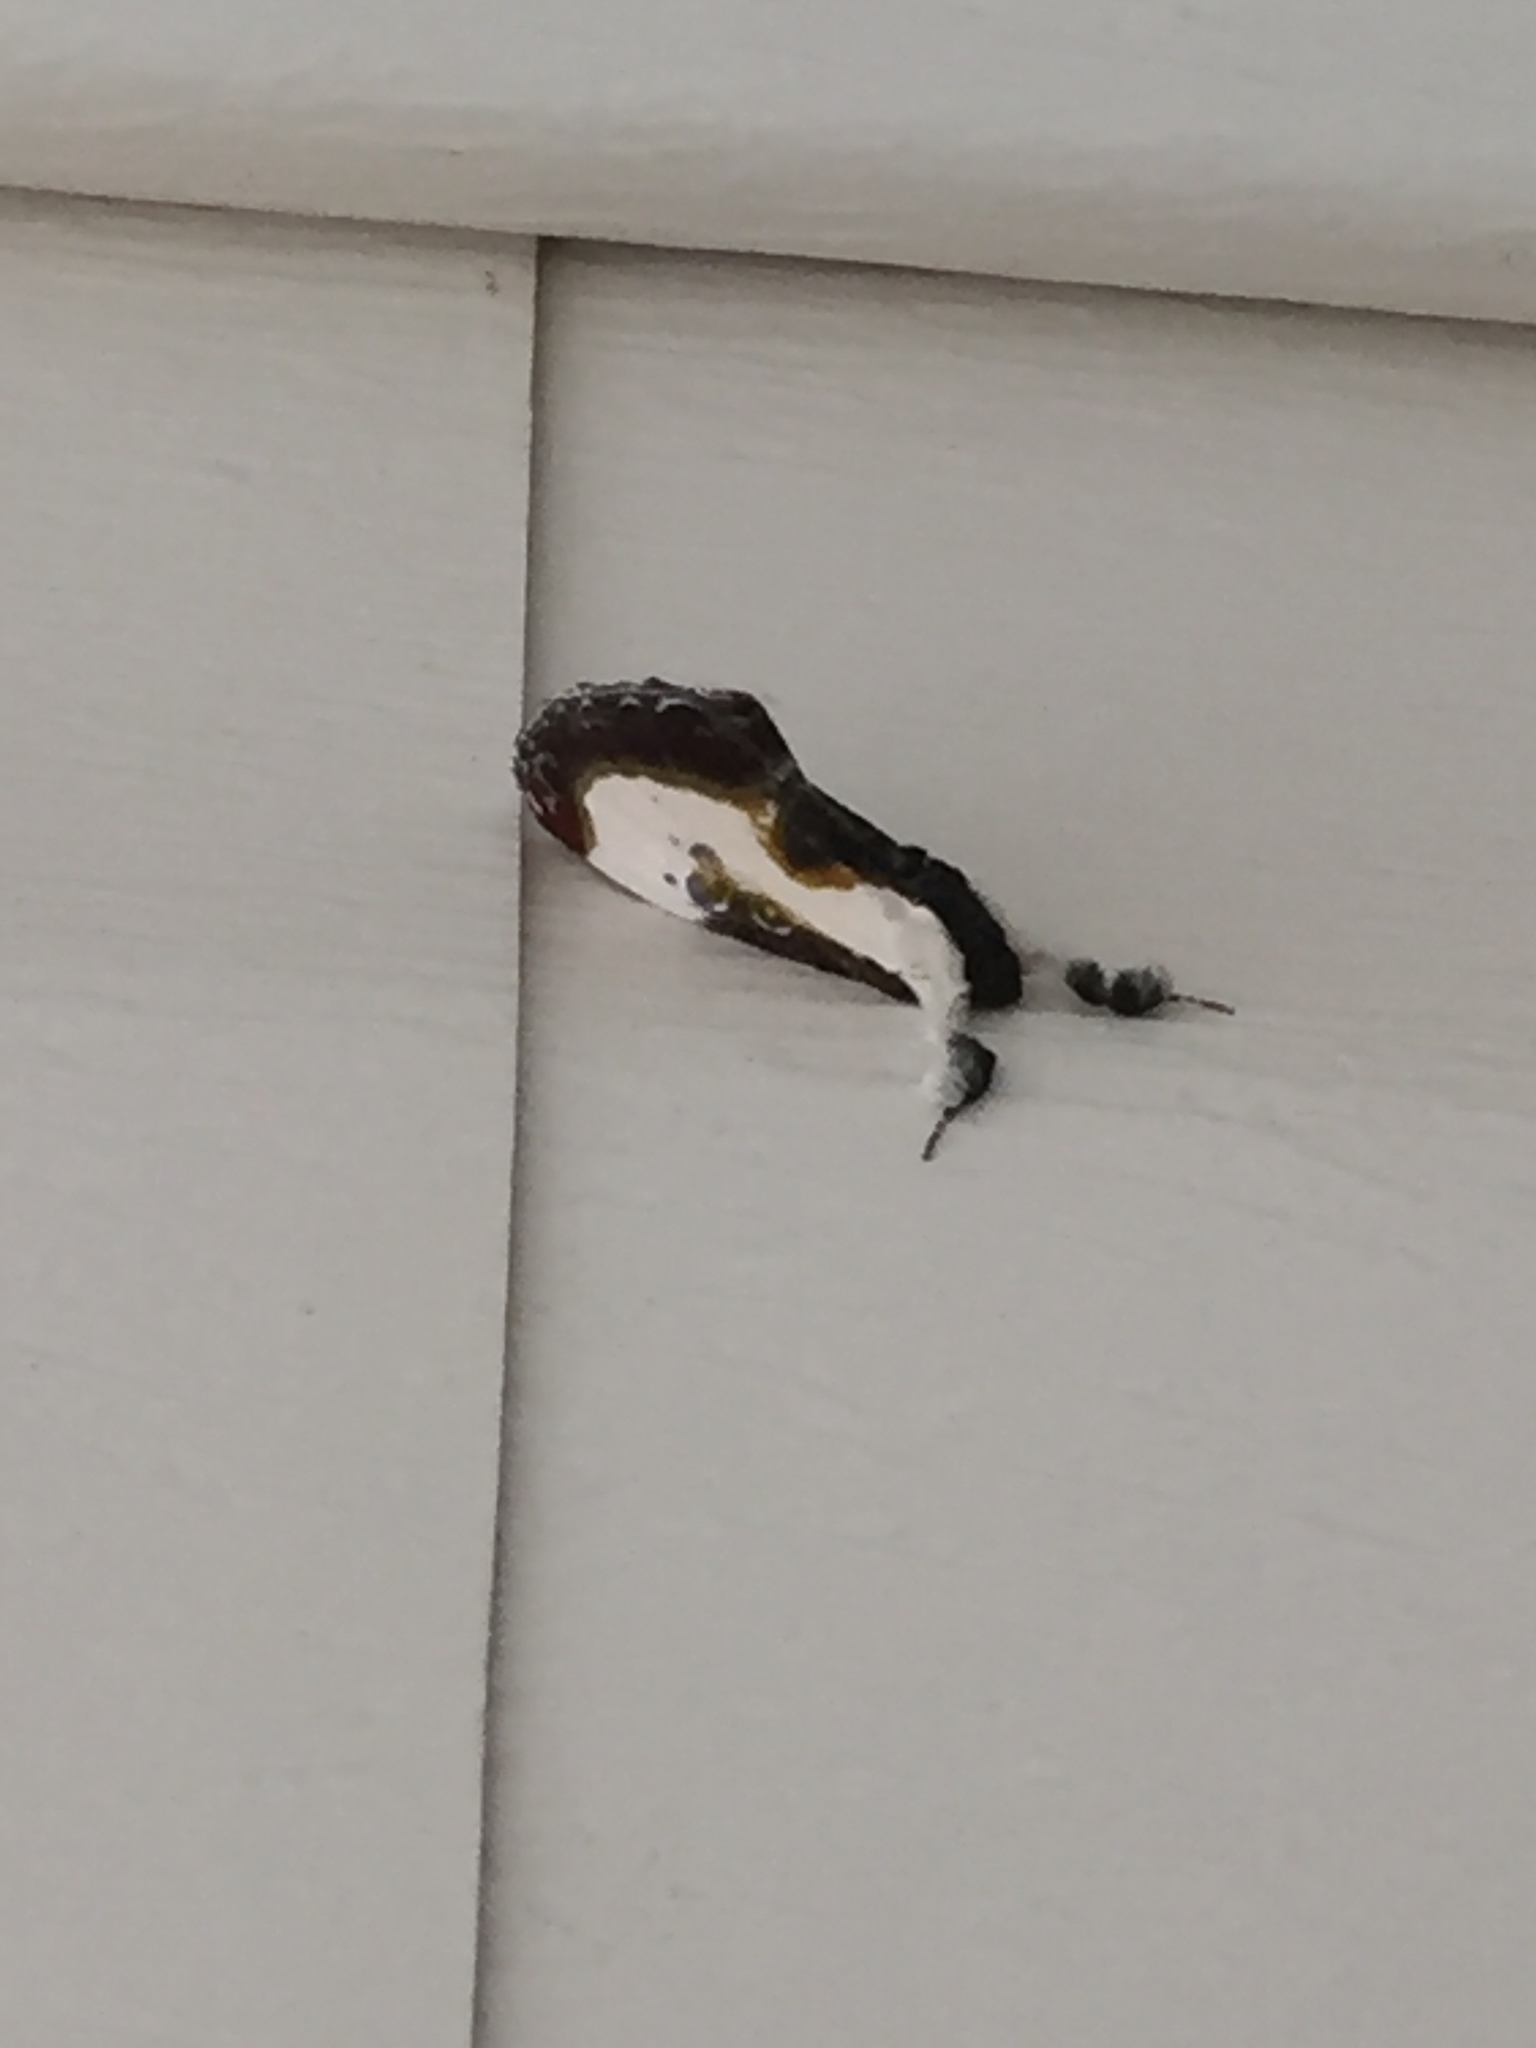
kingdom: Animalia
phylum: Arthropoda
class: Insecta
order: Lepidoptera
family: Noctuidae
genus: Eudryas
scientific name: Eudryas grata
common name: Beautiful wood-nymph
